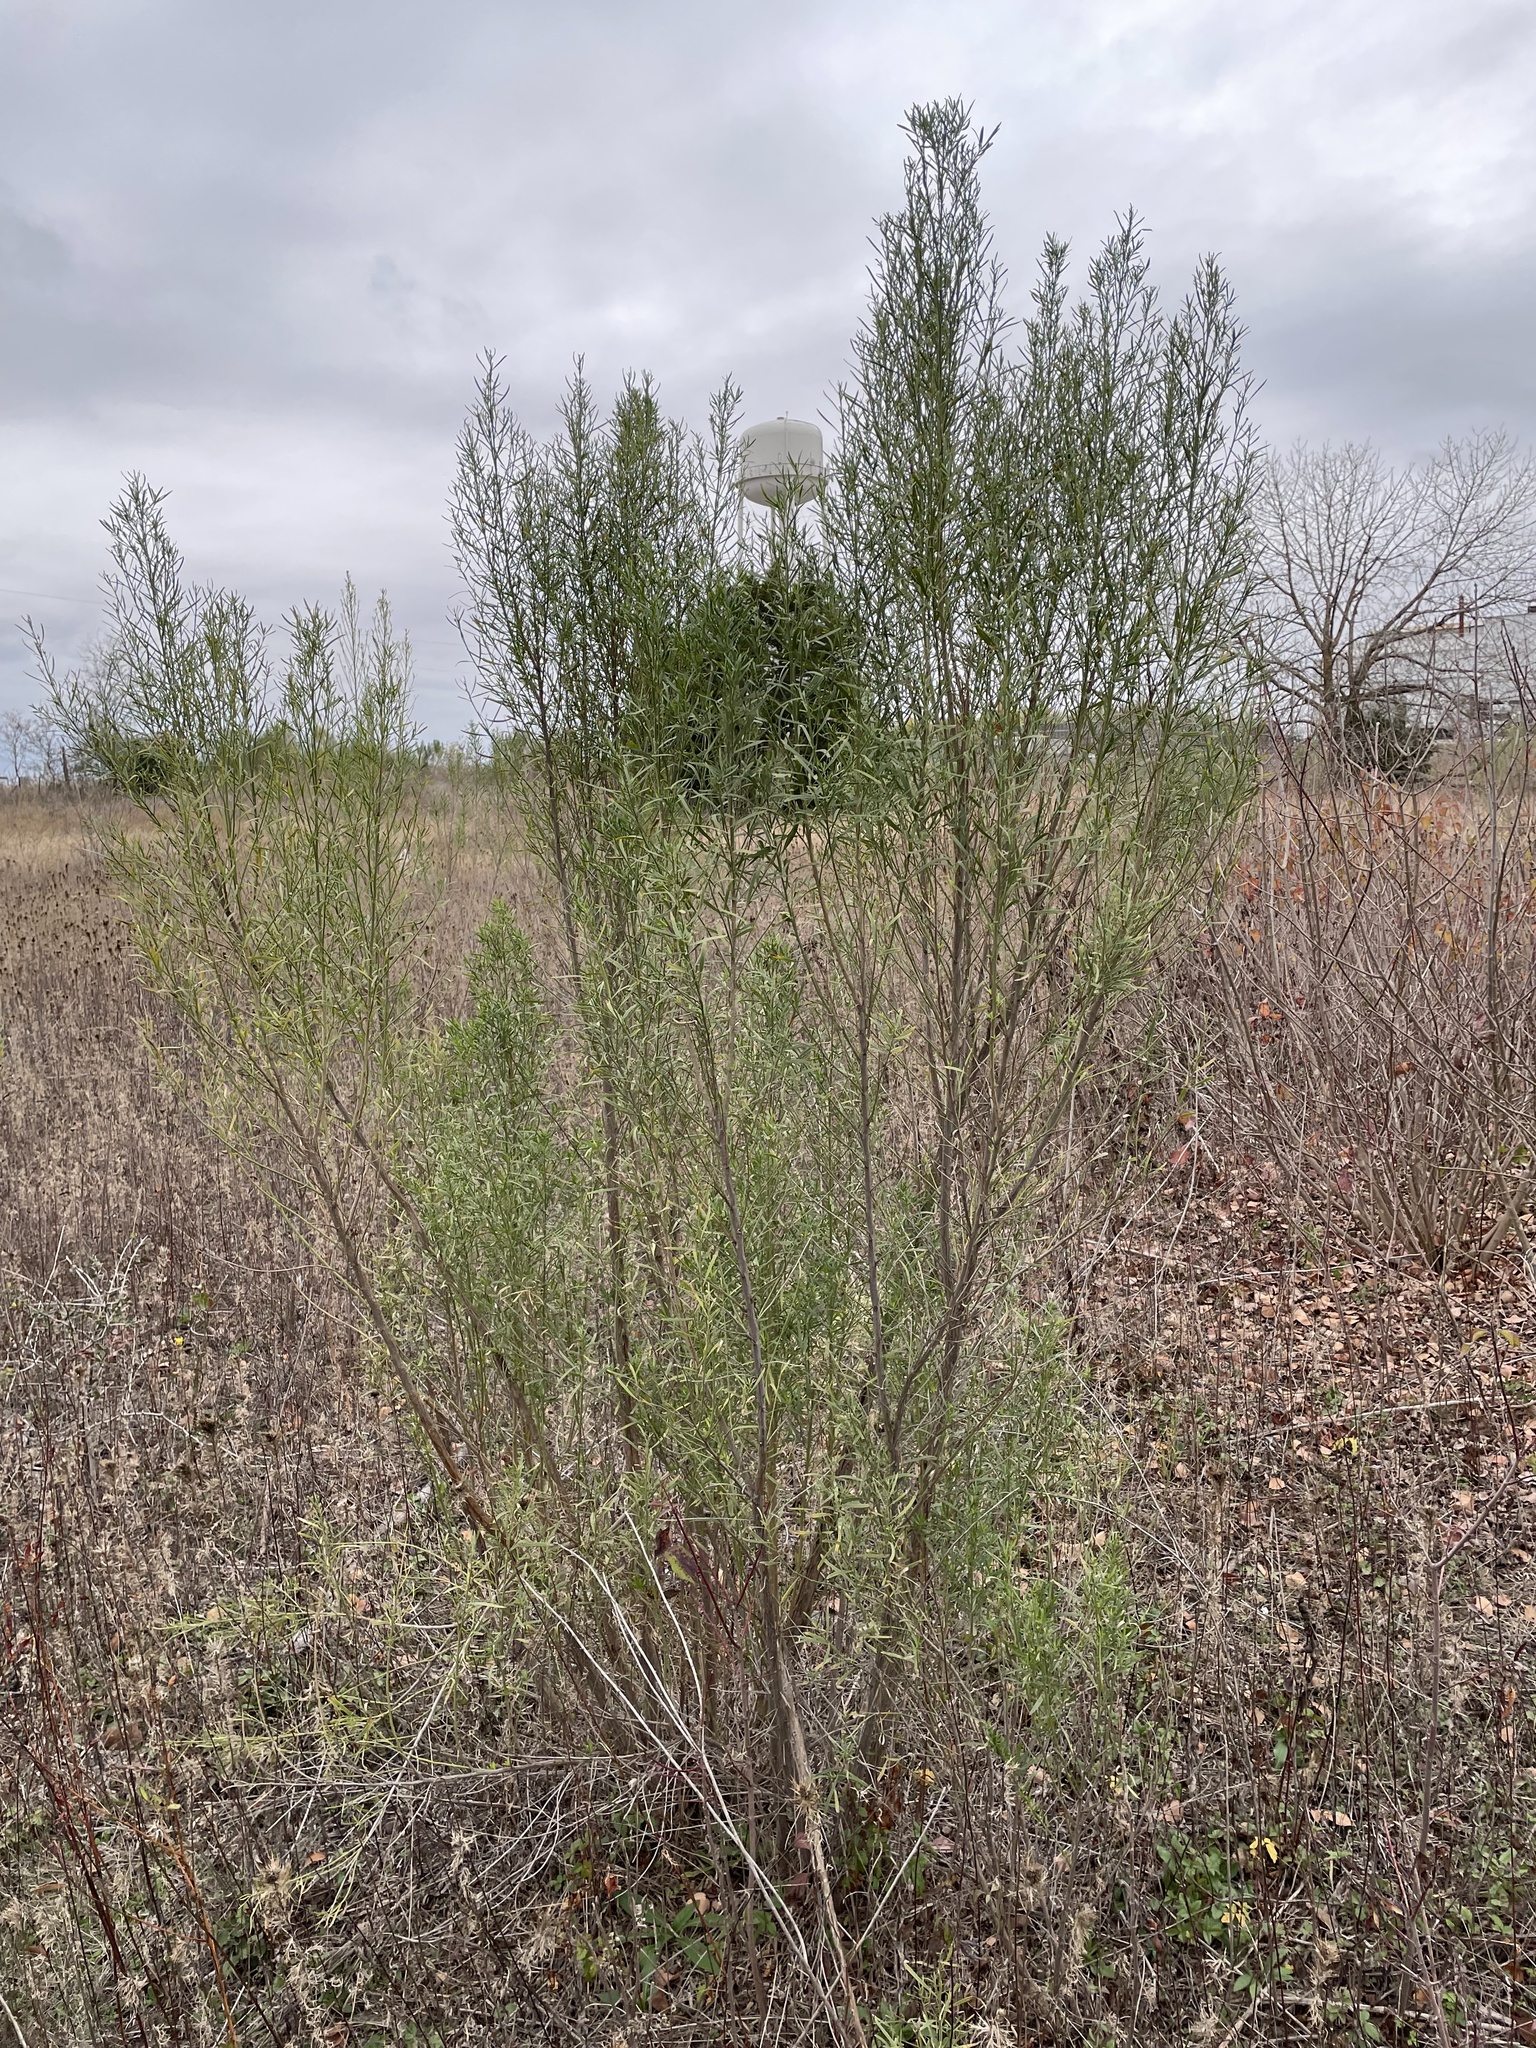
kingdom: Plantae
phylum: Tracheophyta
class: Magnoliopsida
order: Asterales
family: Asteraceae
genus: Baccharis
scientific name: Baccharis neglecta
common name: Roosevelt-weed
